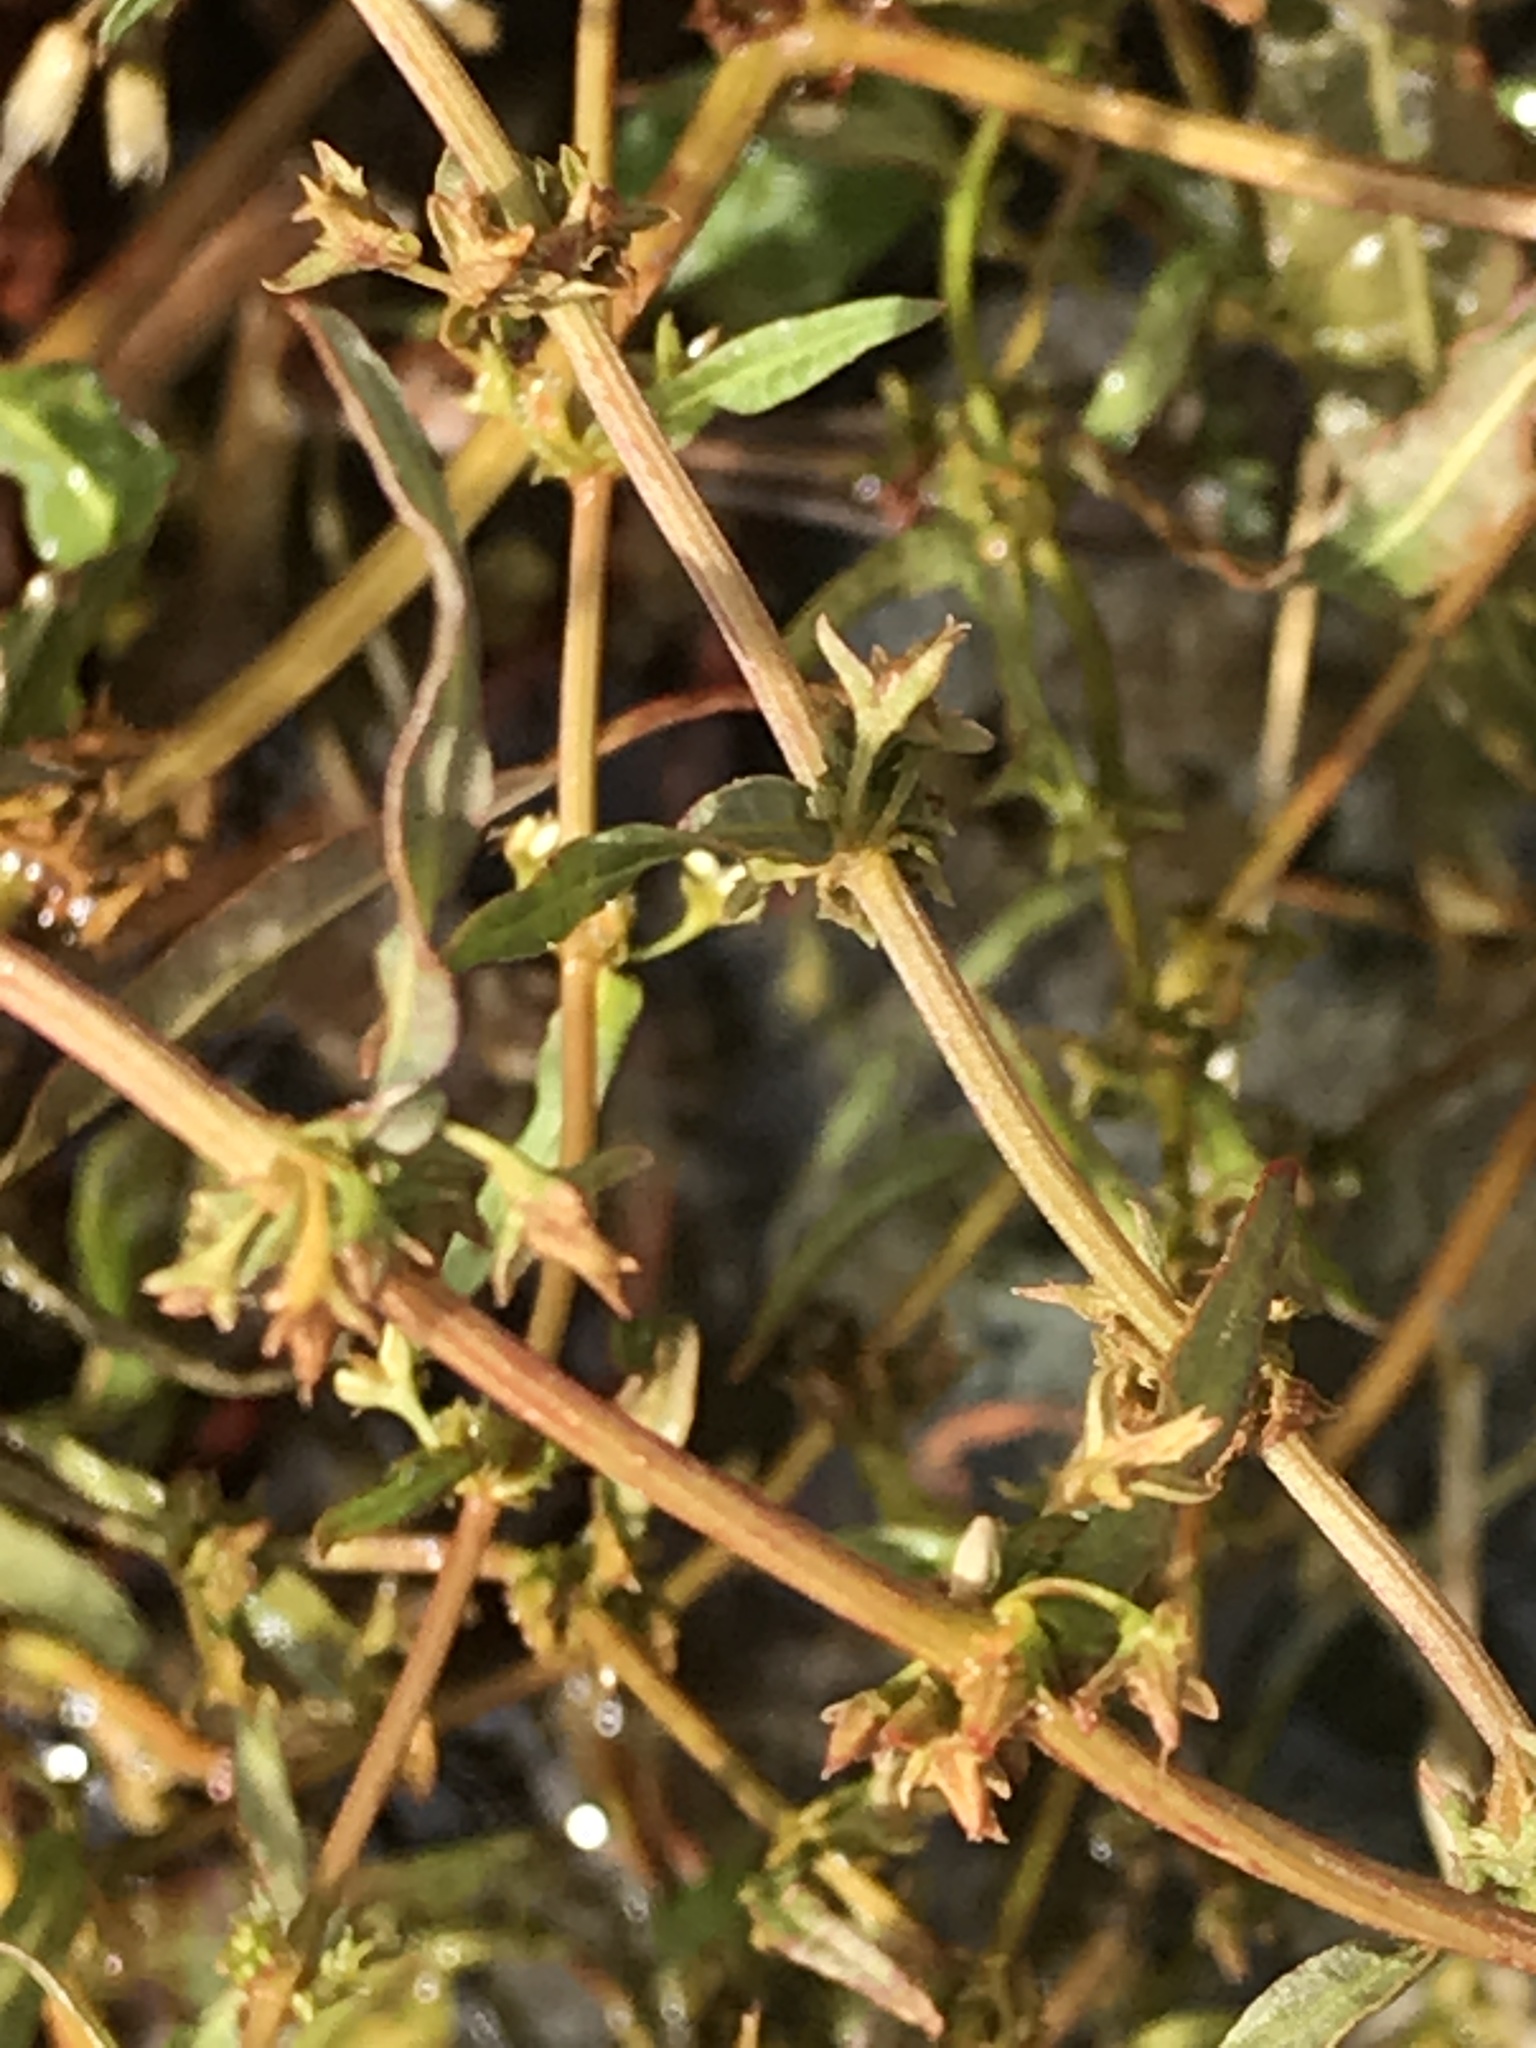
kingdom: Plantae
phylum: Tracheophyta
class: Magnoliopsida
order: Caryophyllales
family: Polygonaceae
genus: Rumex
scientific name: Rumex flexuosus
